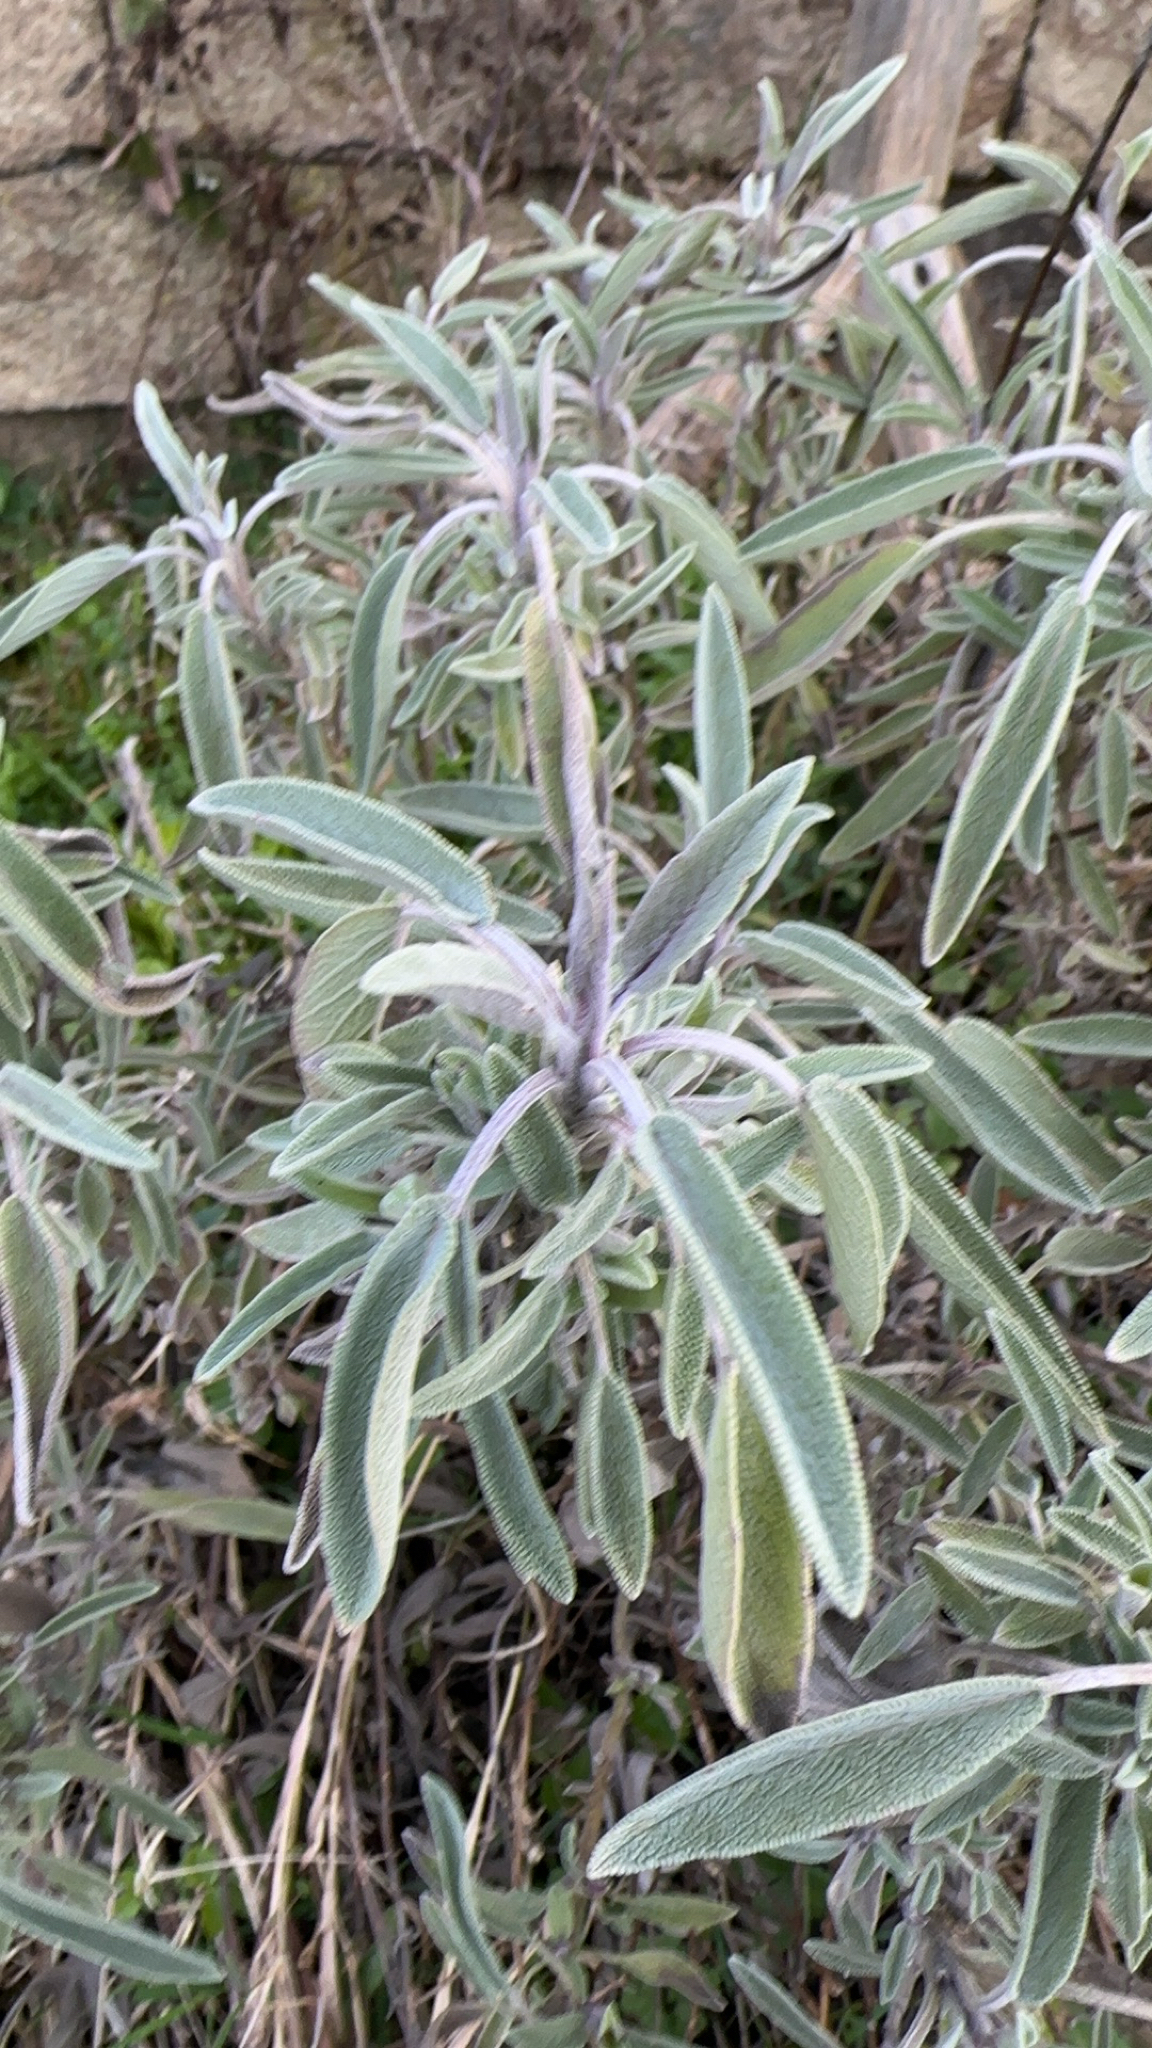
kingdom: Plantae
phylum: Tracheophyta
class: Magnoliopsida
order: Lamiales
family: Lamiaceae
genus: Salvia
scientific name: Salvia officinalis
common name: Sage
